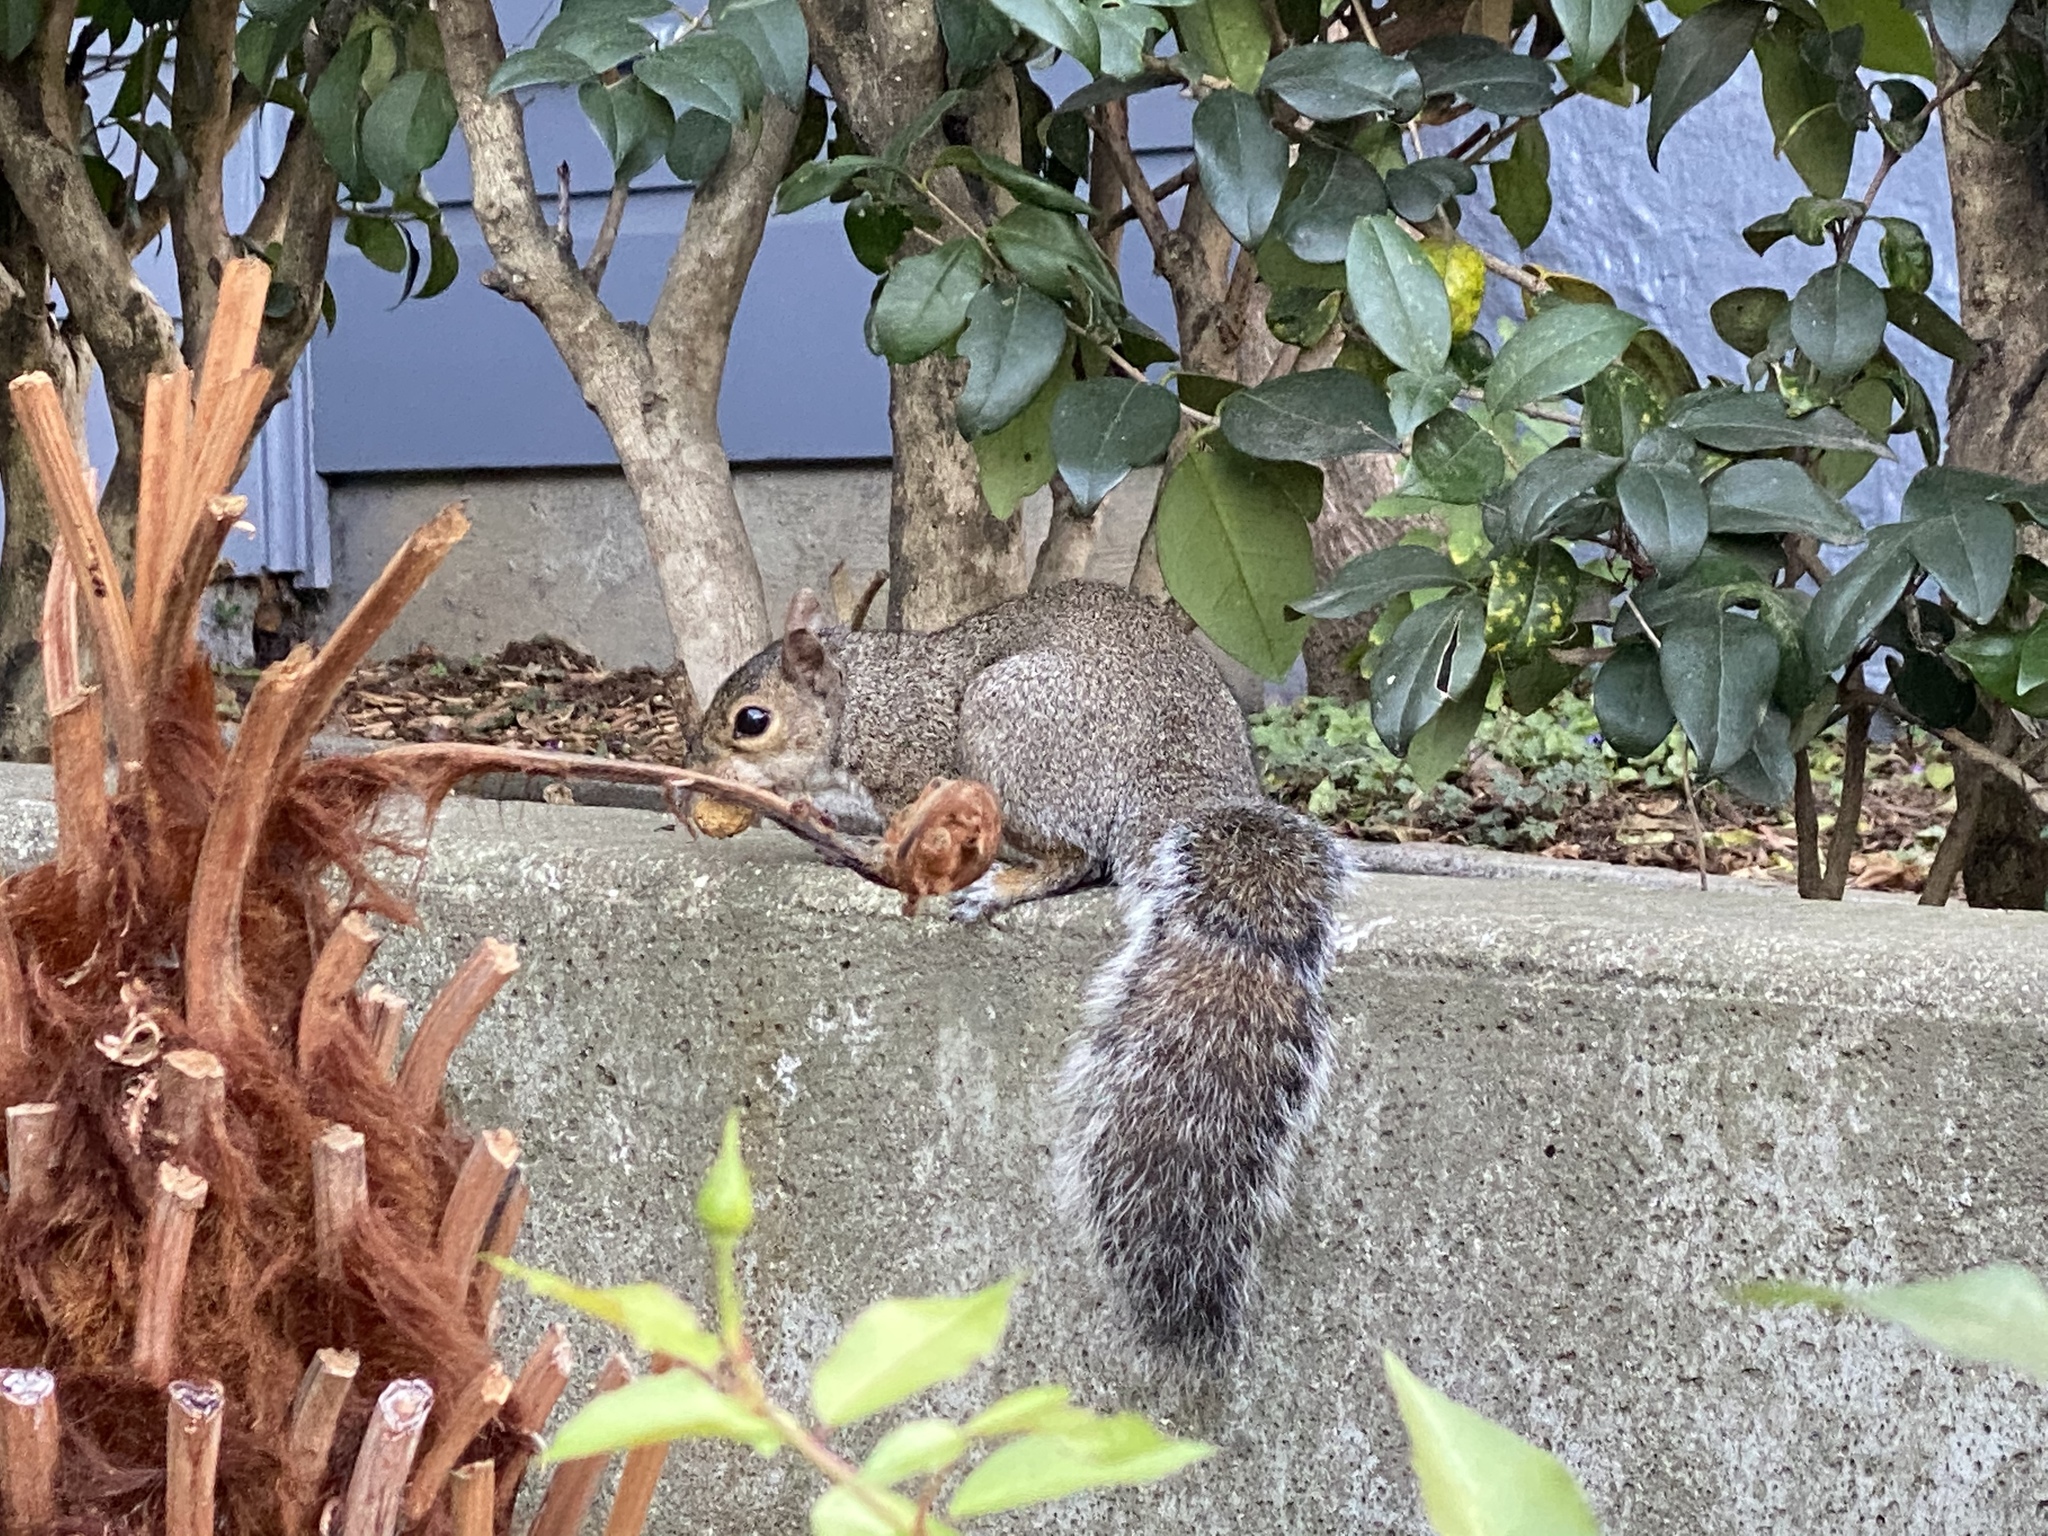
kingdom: Animalia
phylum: Chordata
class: Mammalia
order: Rodentia
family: Sciuridae
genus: Sciurus
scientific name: Sciurus carolinensis
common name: Eastern gray squirrel
